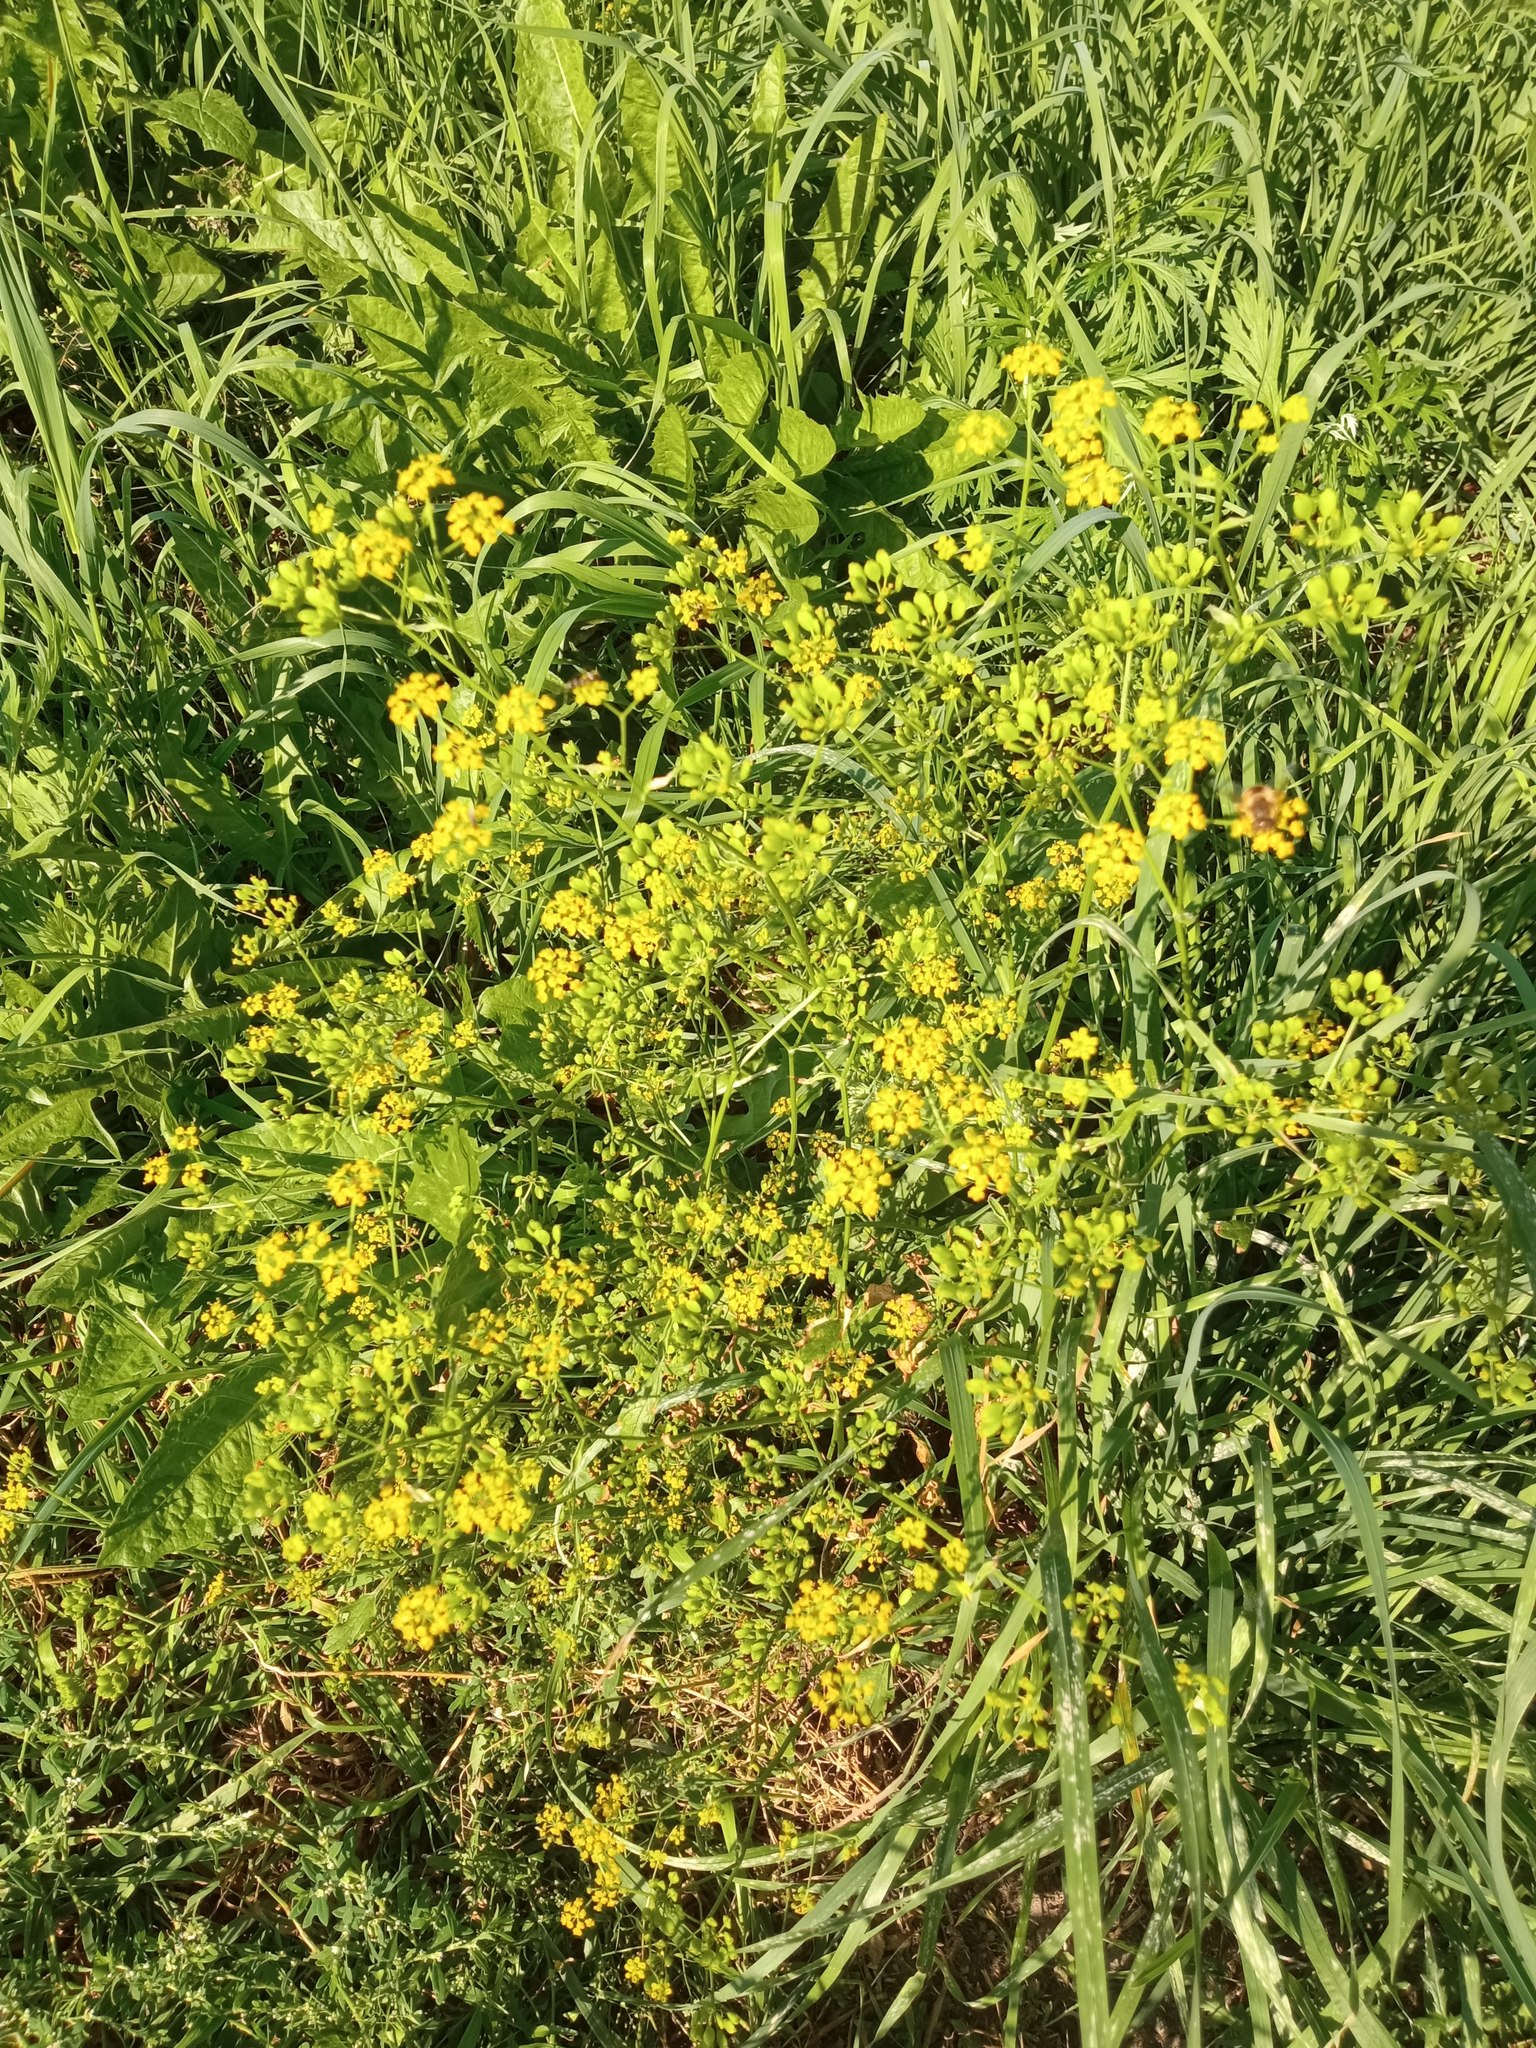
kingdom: Plantae
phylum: Tracheophyta
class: Magnoliopsida
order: Apiales
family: Apiaceae
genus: Pastinaca
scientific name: Pastinaca sativa
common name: Wild parsnip
